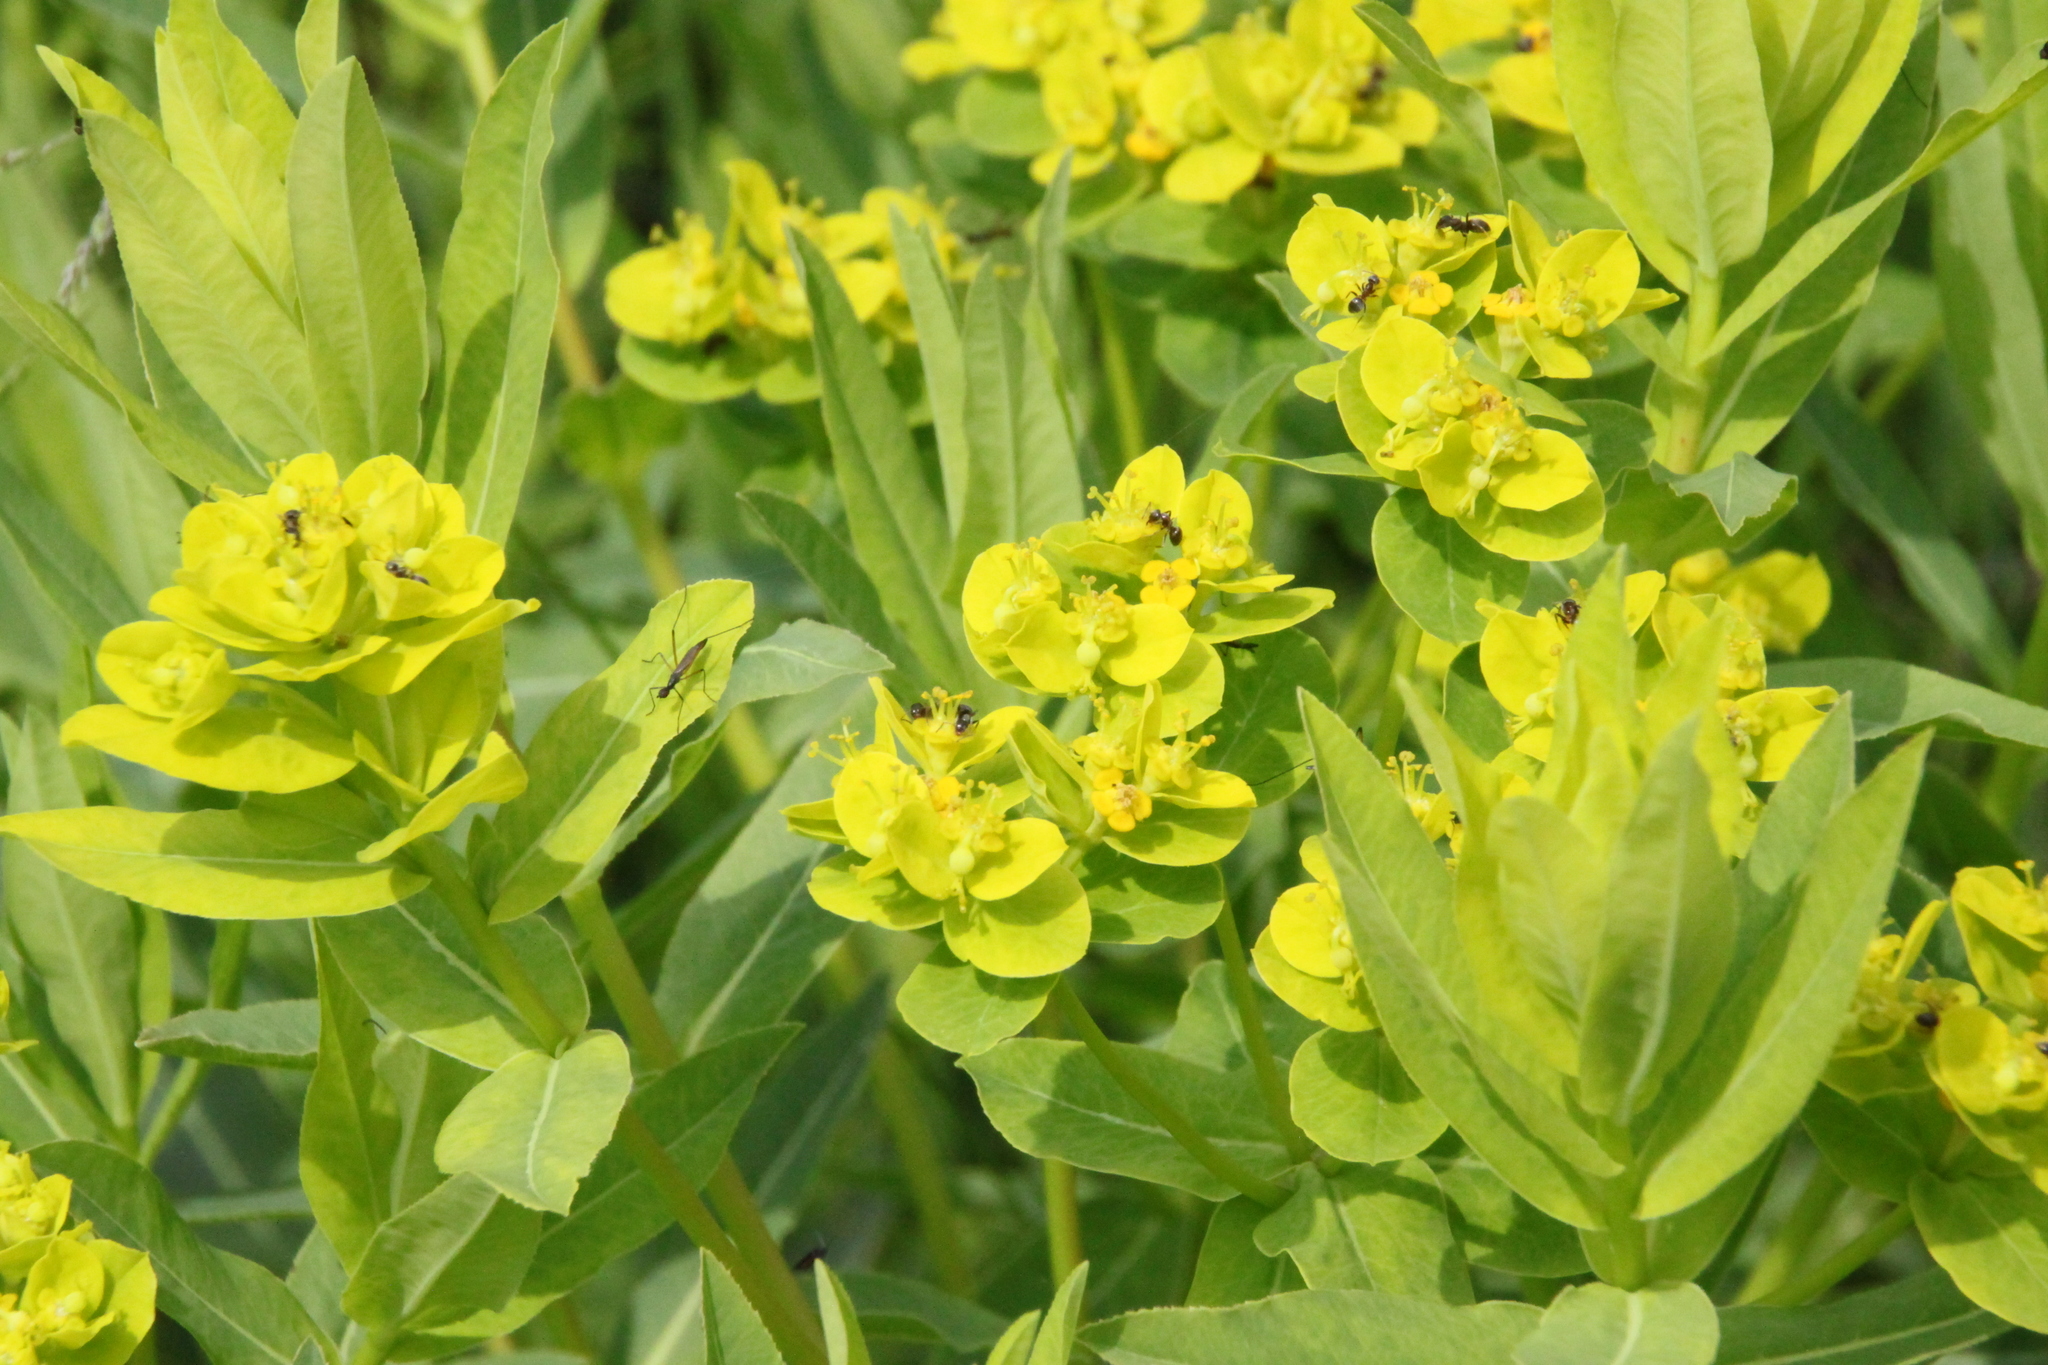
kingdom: Plantae
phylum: Tracheophyta
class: Magnoliopsida
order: Malpighiales
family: Euphorbiaceae
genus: Euphorbia
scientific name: Euphorbia semivillosa
